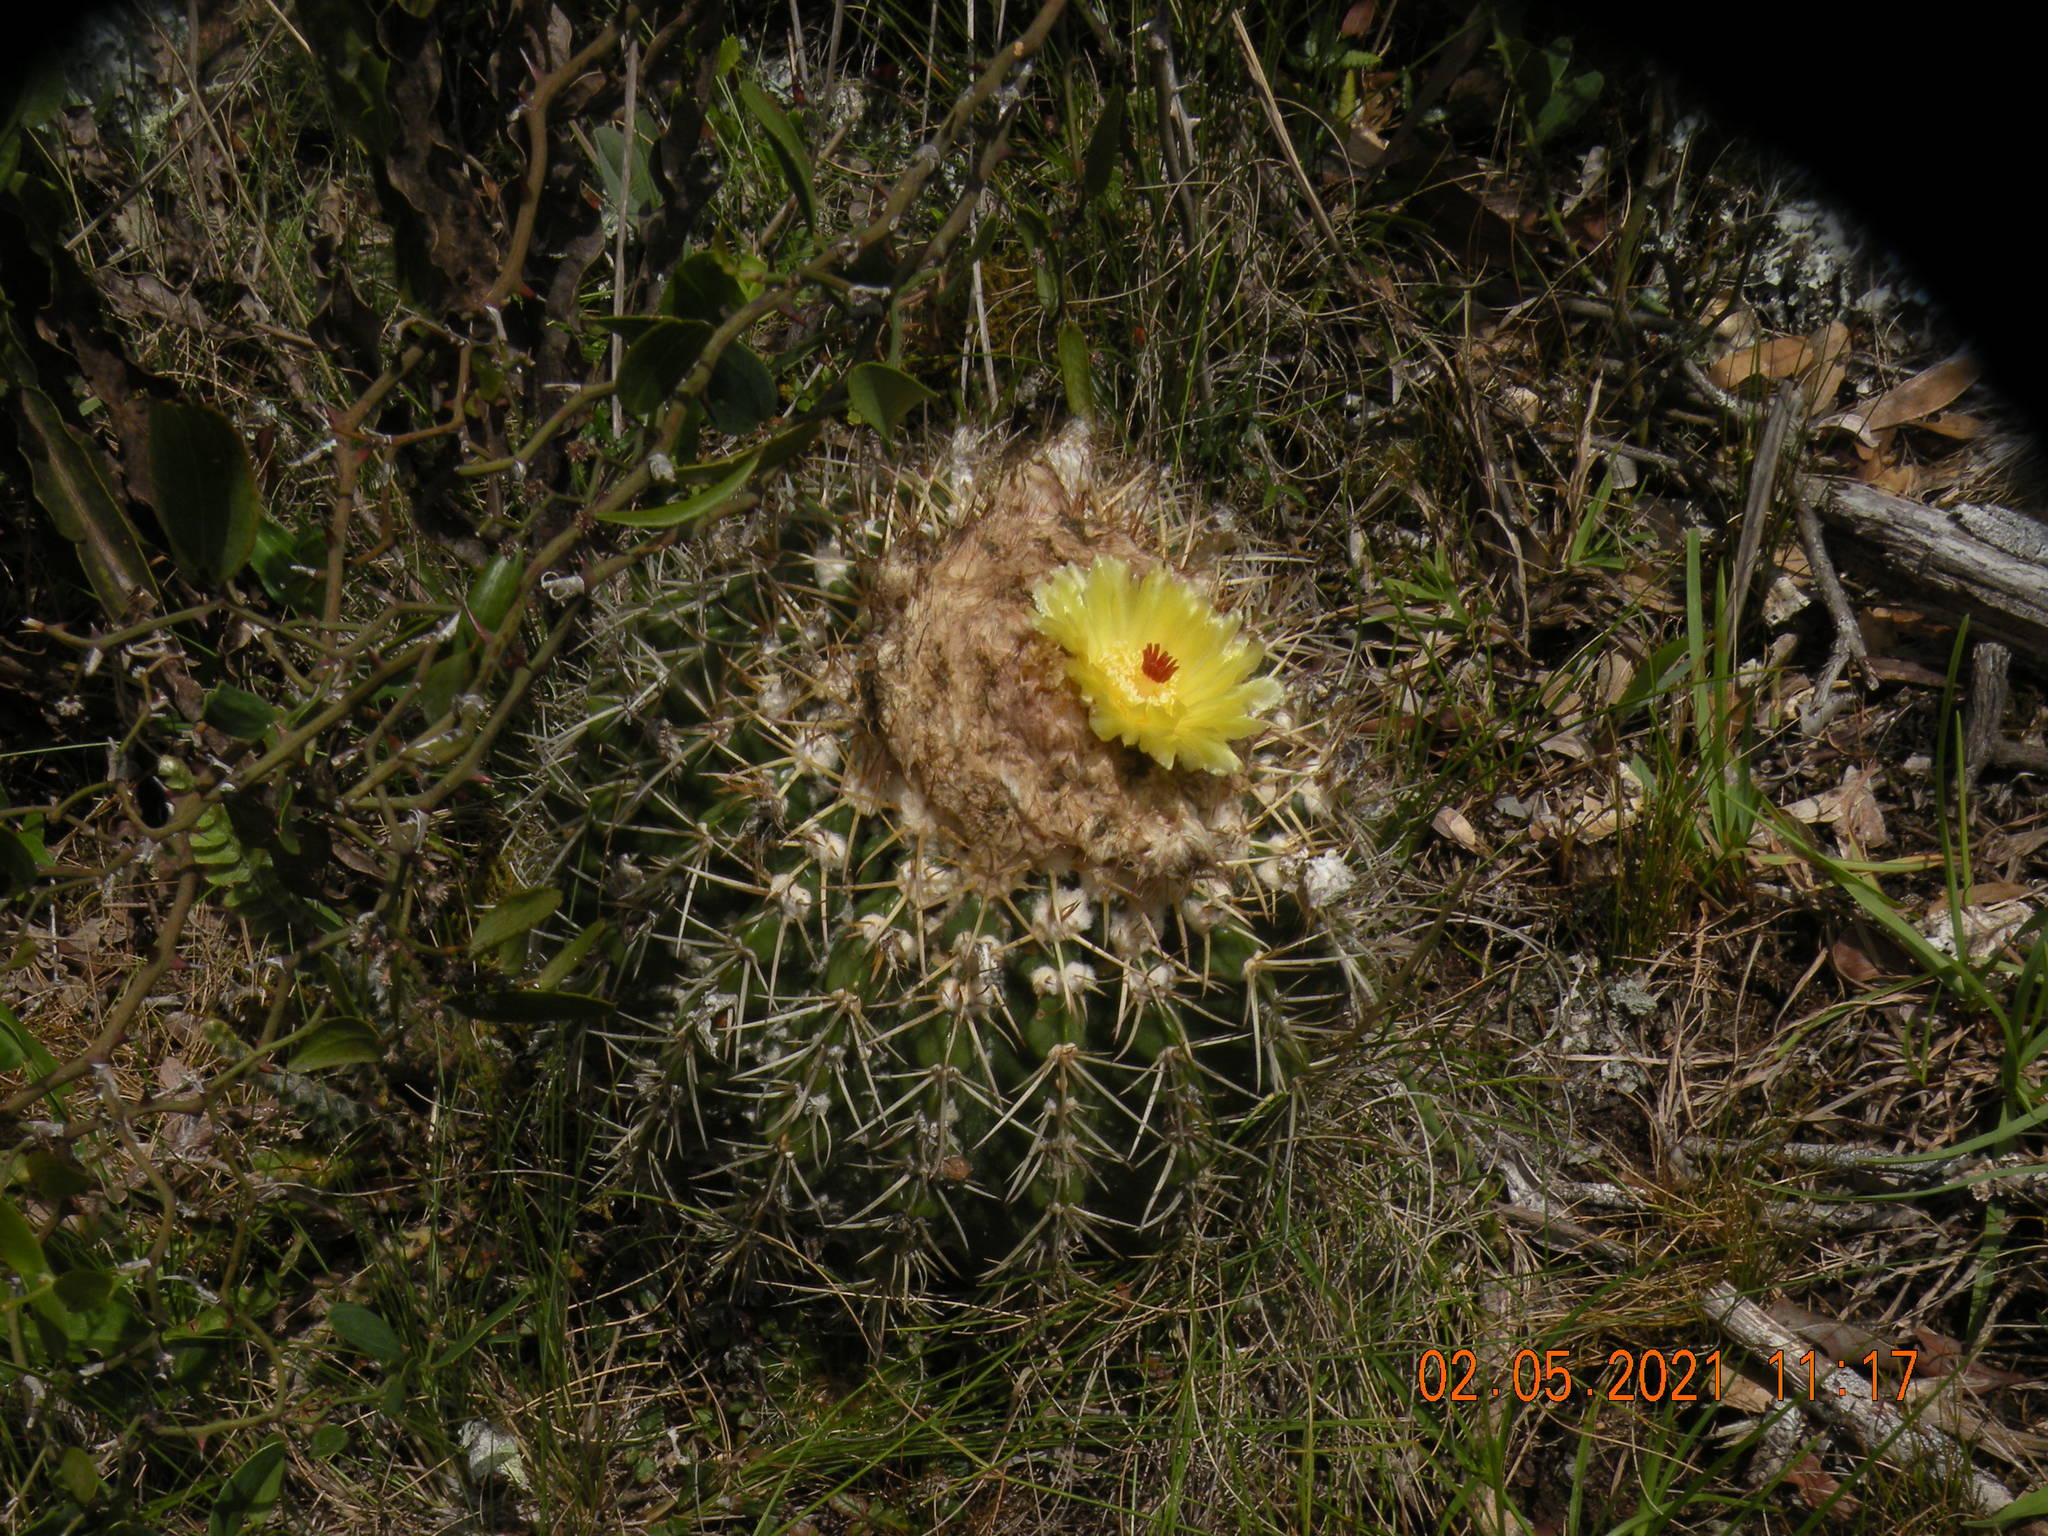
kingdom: Plantae
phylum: Tracheophyta
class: Magnoliopsida
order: Caryophyllales
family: Cactaceae
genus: Parodia
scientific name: Parodia erinacea
